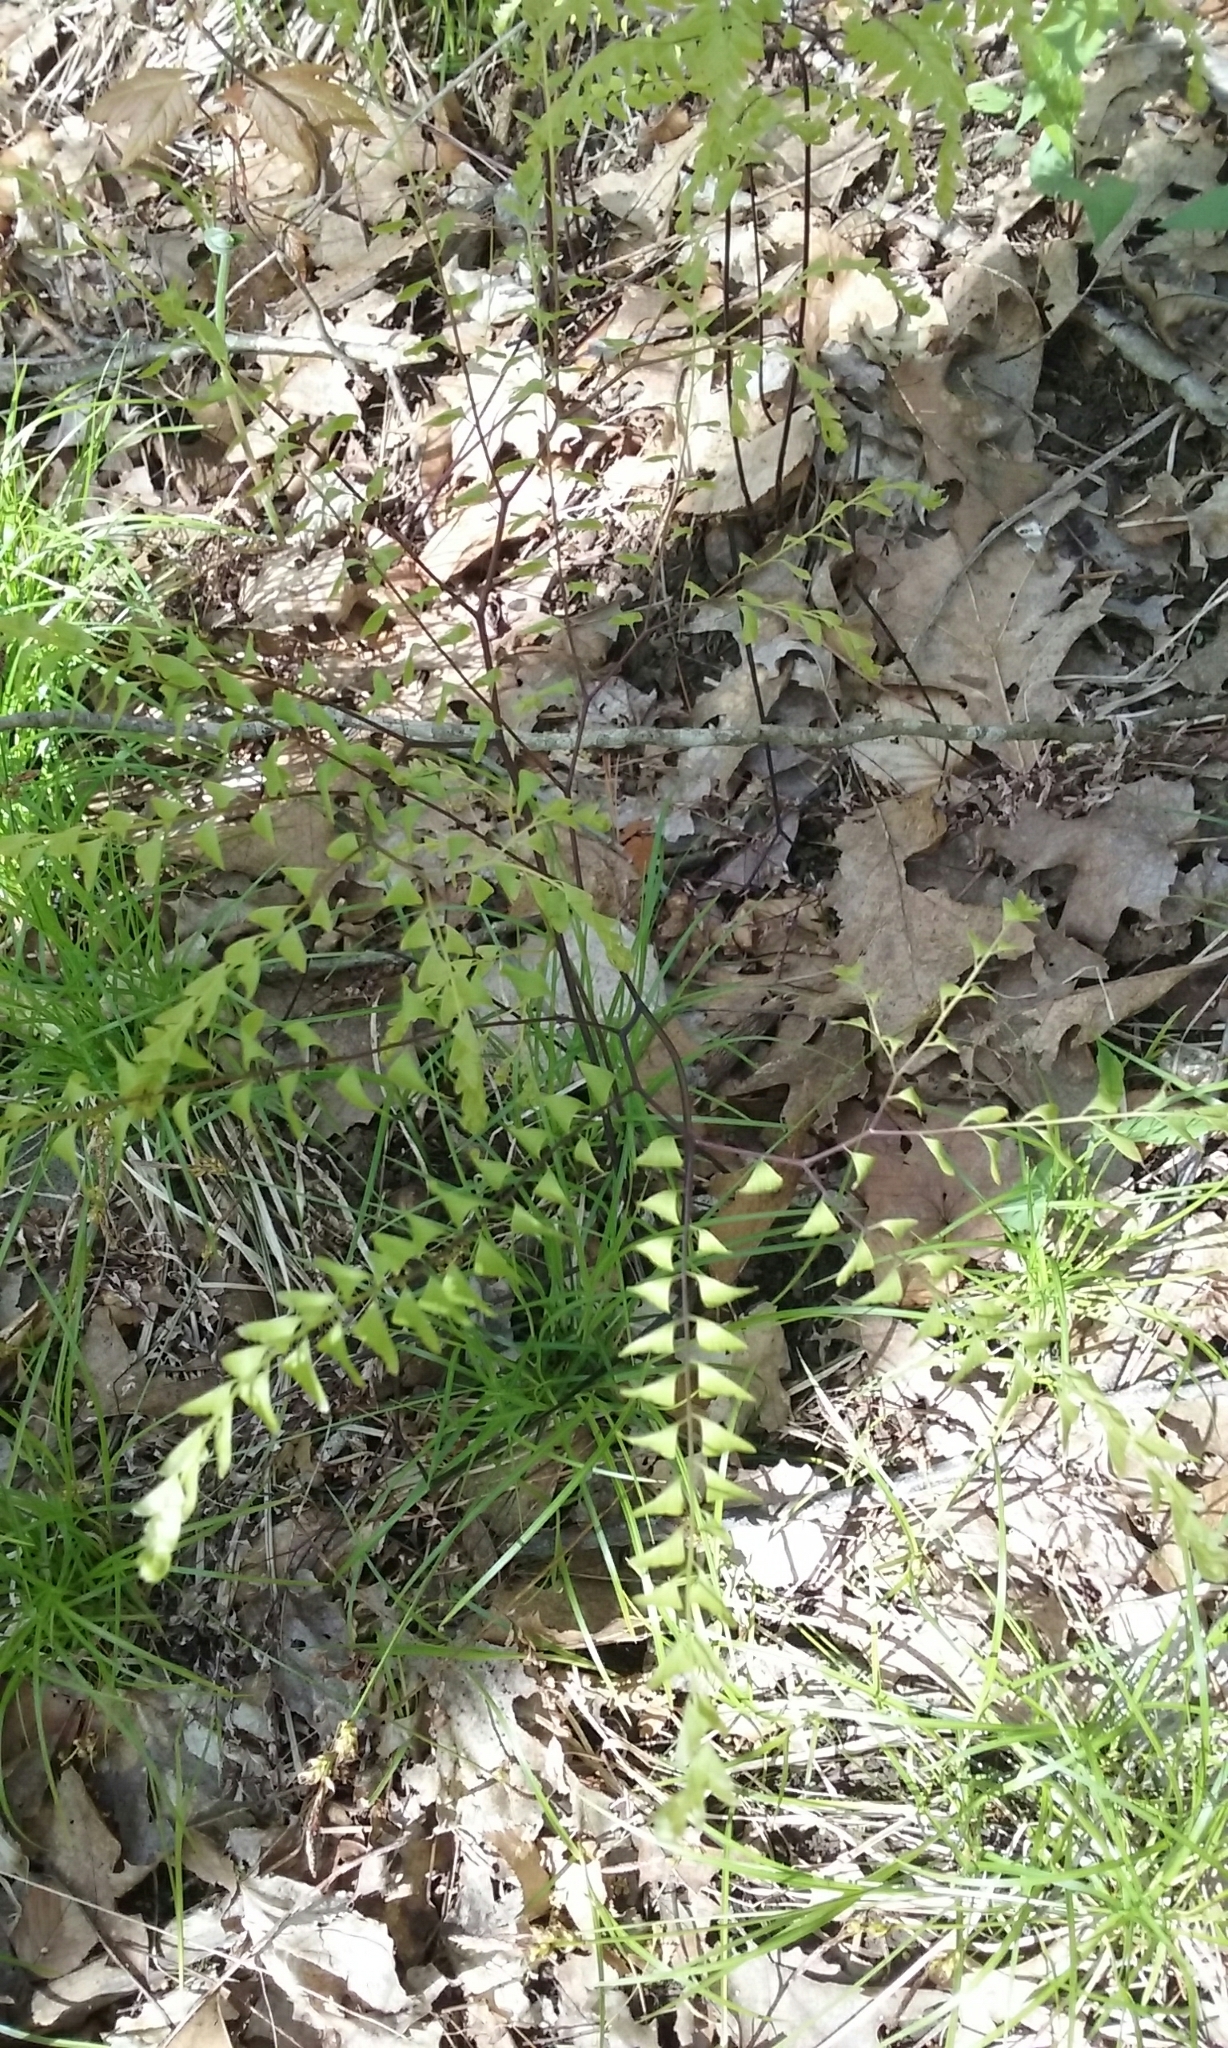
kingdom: Plantae
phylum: Tracheophyta
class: Polypodiopsida
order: Polypodiales
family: Pteridaceae
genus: Adiantum
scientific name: Adiantum pedatum
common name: Five-finger fern
